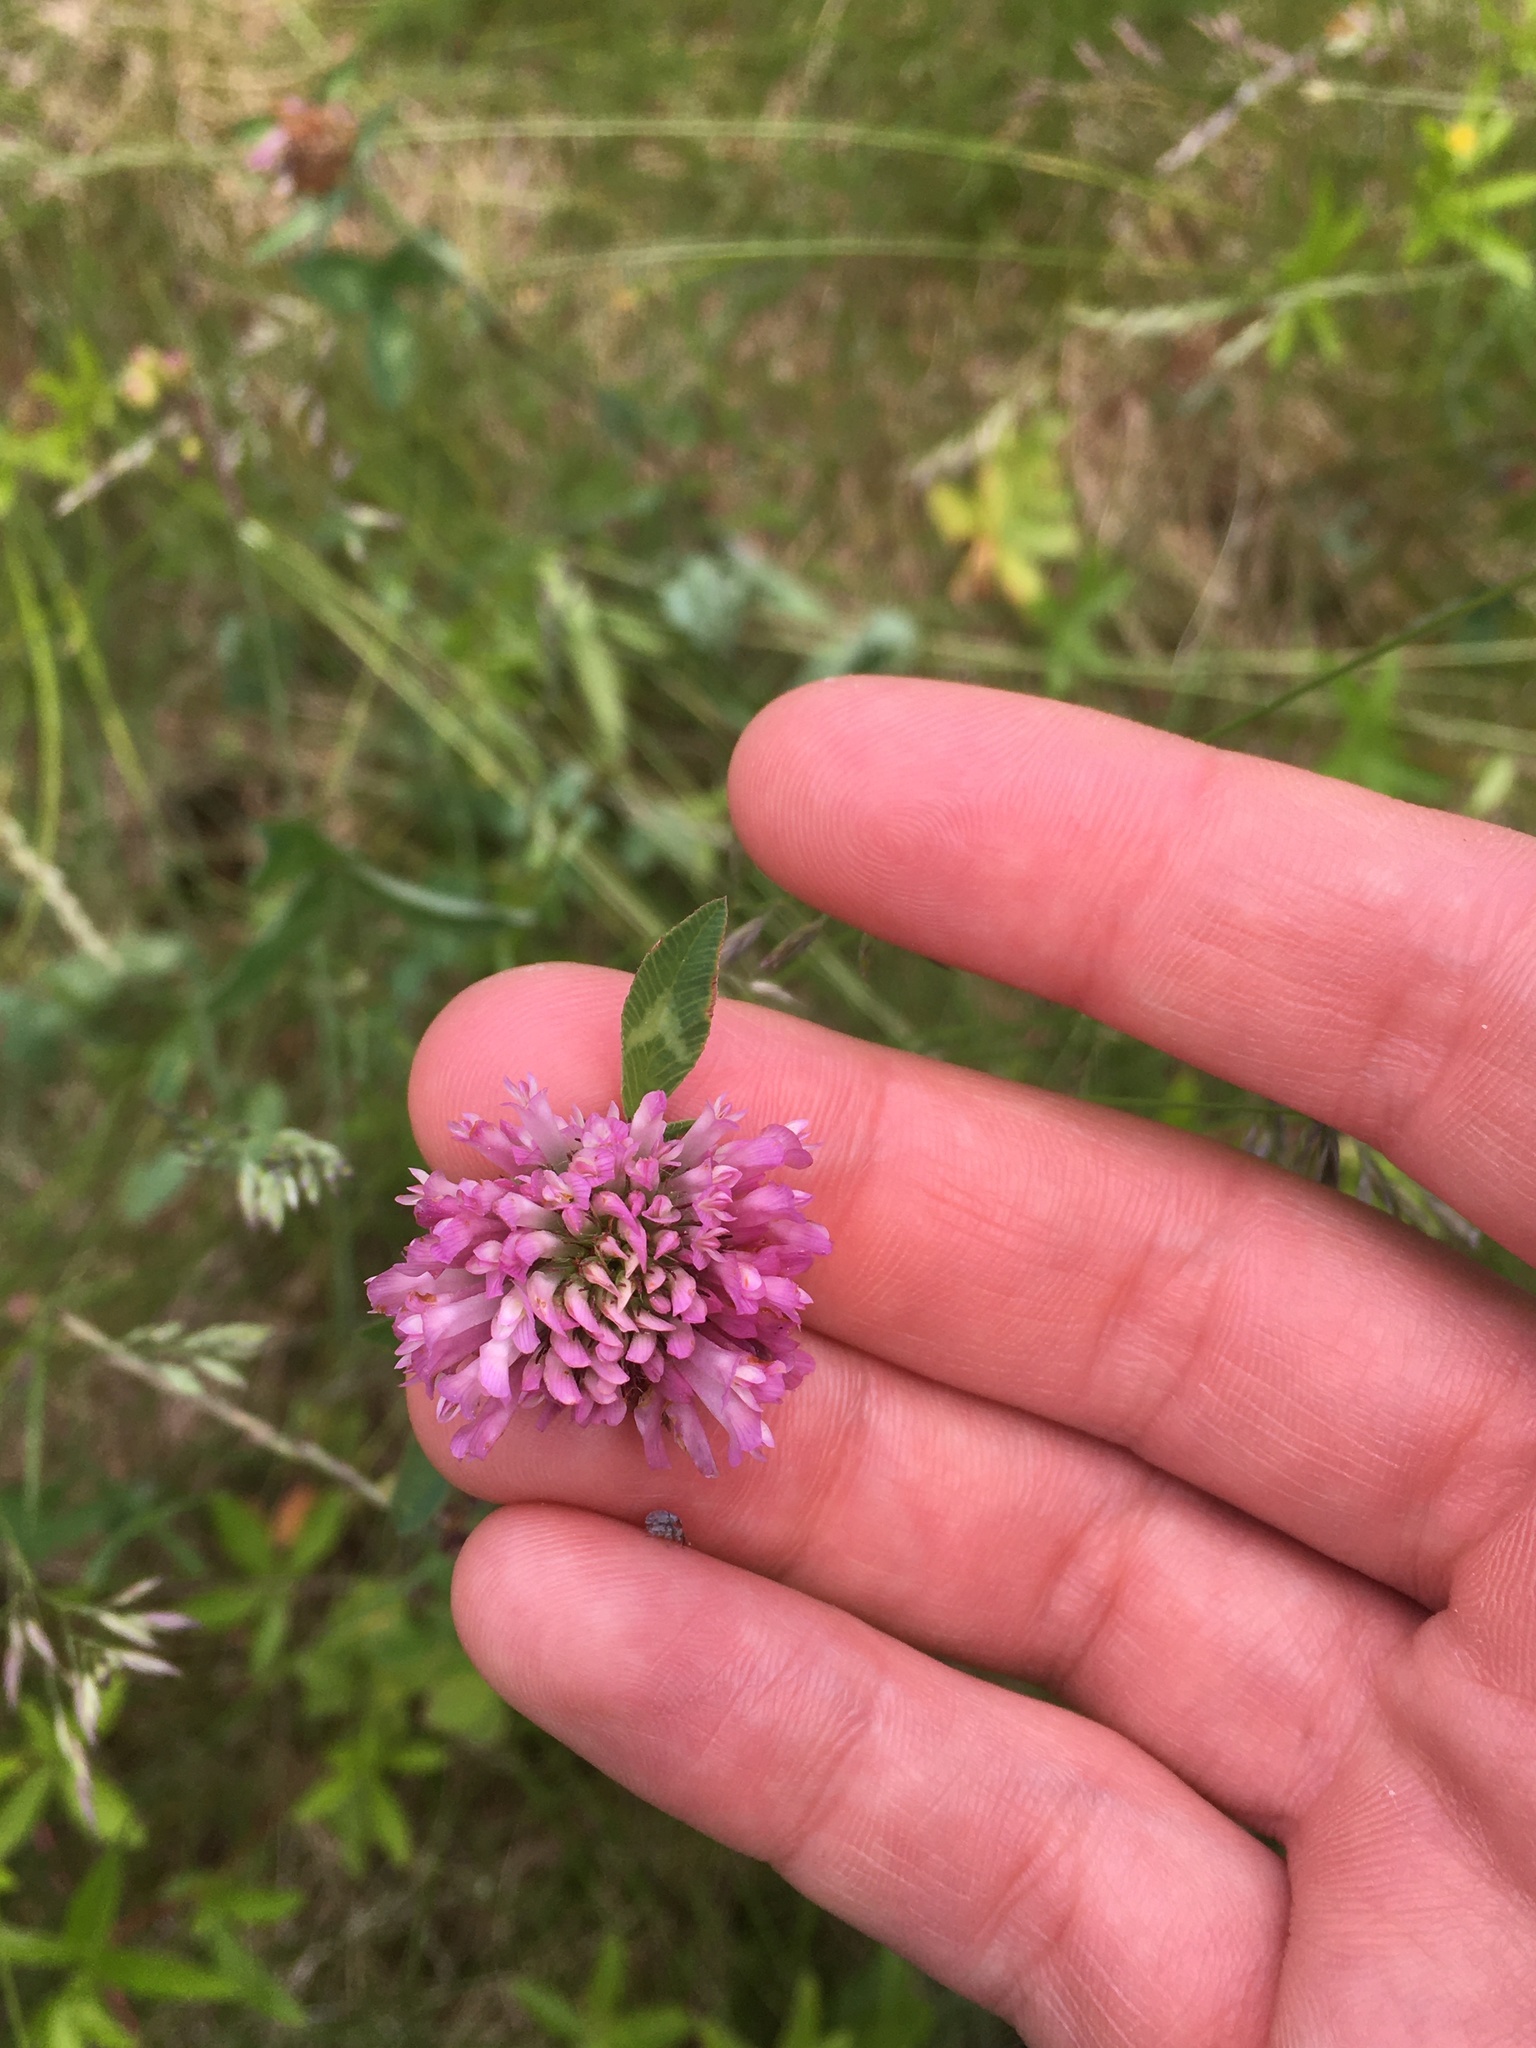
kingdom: Plantae
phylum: Tracheophyta
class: Magnoliopsida
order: Fabales
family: Fabaceae
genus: Trifolium
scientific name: Trifolium pratense
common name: Red clover
